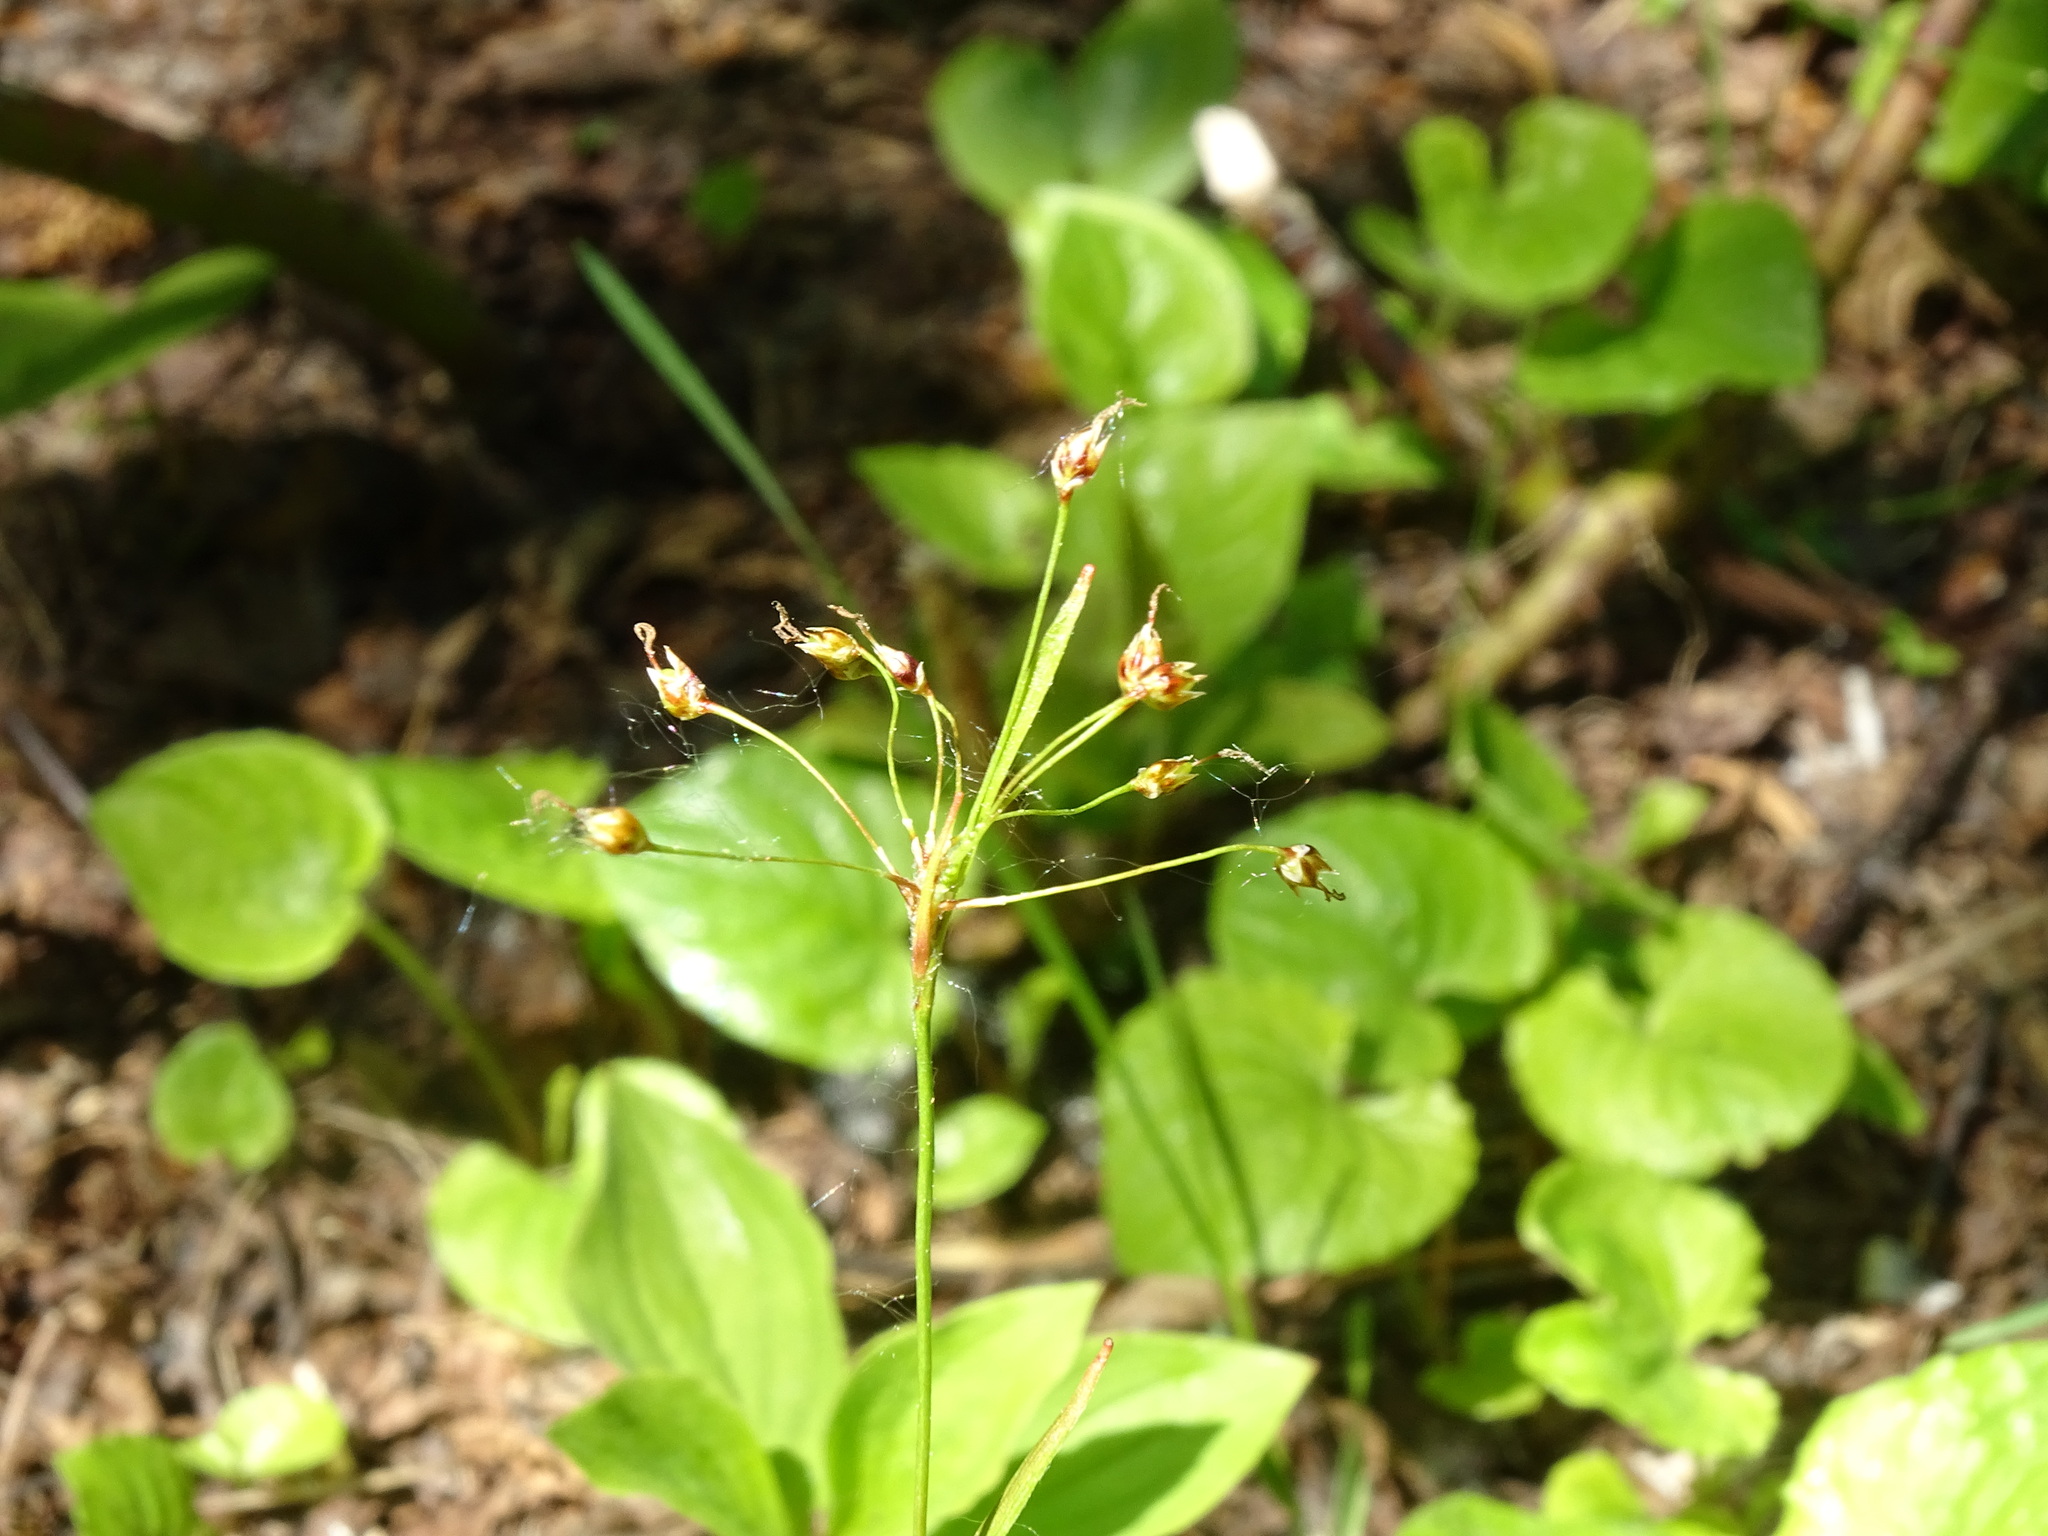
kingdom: Plantae
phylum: Tracheophyta
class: Liliopsida
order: Poales
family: Juncaceae
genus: Luzula
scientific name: Luzula acuminata
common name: Hairy woodrush
